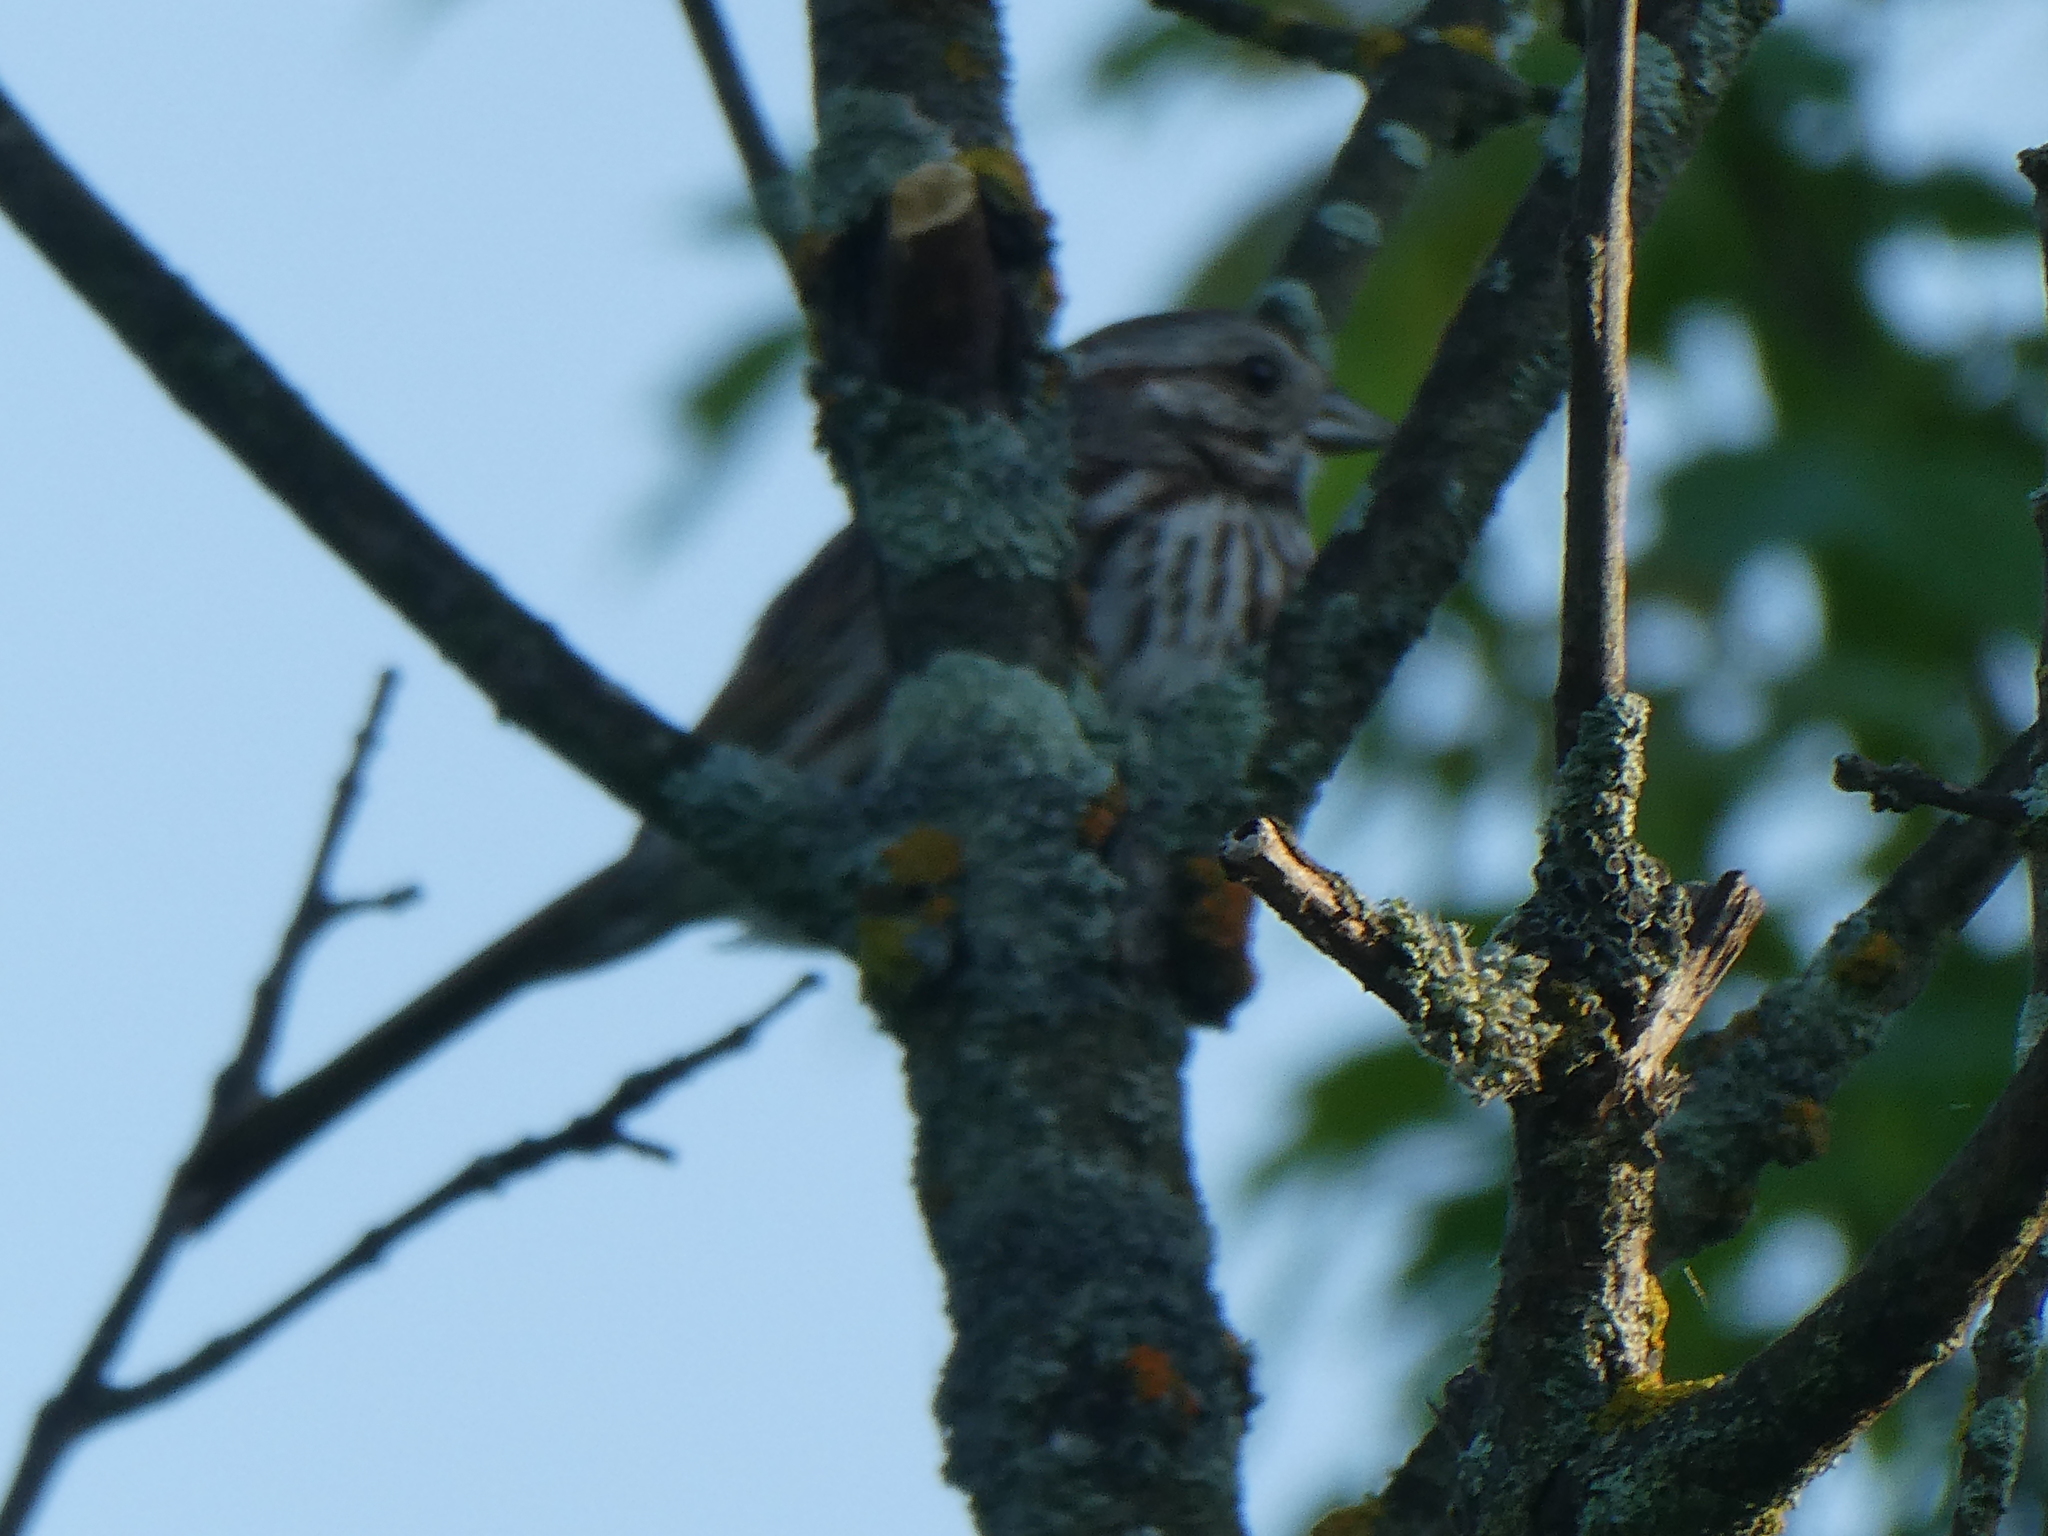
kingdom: Animalia
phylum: Chordata
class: Aves
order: Passeriformes
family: Passerellidae
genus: Melospiza
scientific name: Melospiza melodia
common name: Song sparrow
